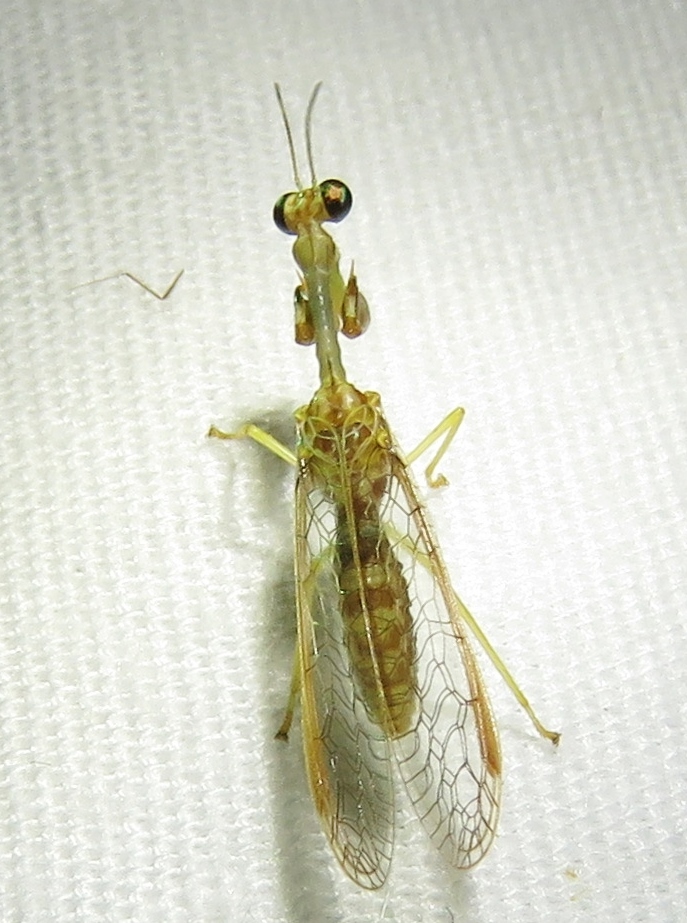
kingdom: Animalia
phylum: Arthropoda
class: Insecta
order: Neuroptera
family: Mantispidae
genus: Dicromantispa
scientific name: Dicromantispa sayi
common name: Say's mantidfly
